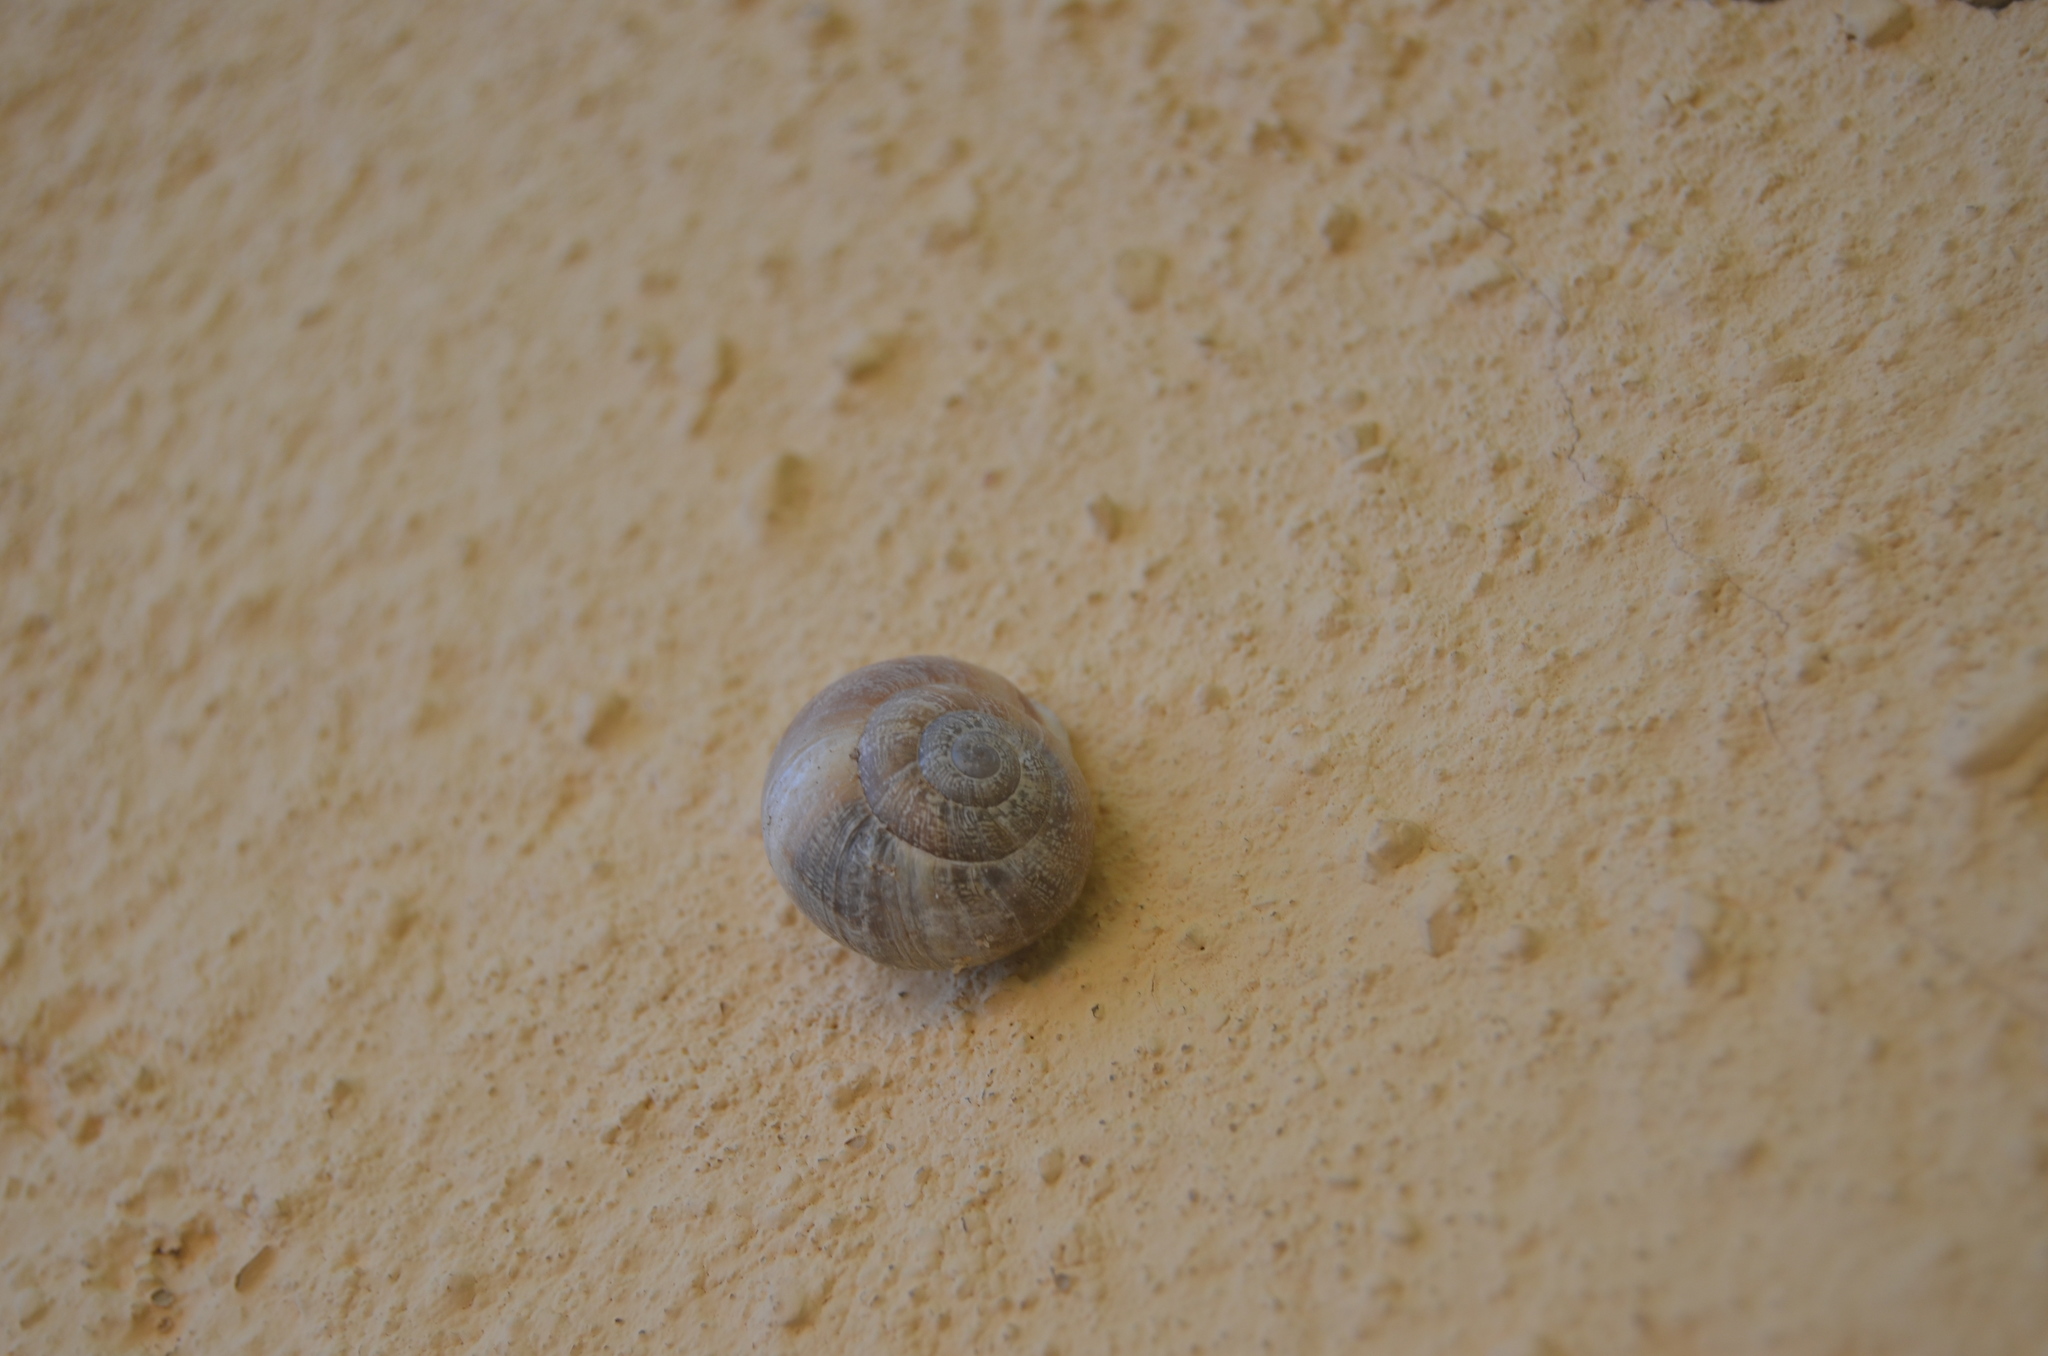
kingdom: Animalia
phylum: Mollusca
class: Gastropoda
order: Stylommatophora
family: Helicidae
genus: Eobania
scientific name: Eobania vermiculata
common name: Chocolateband snail
